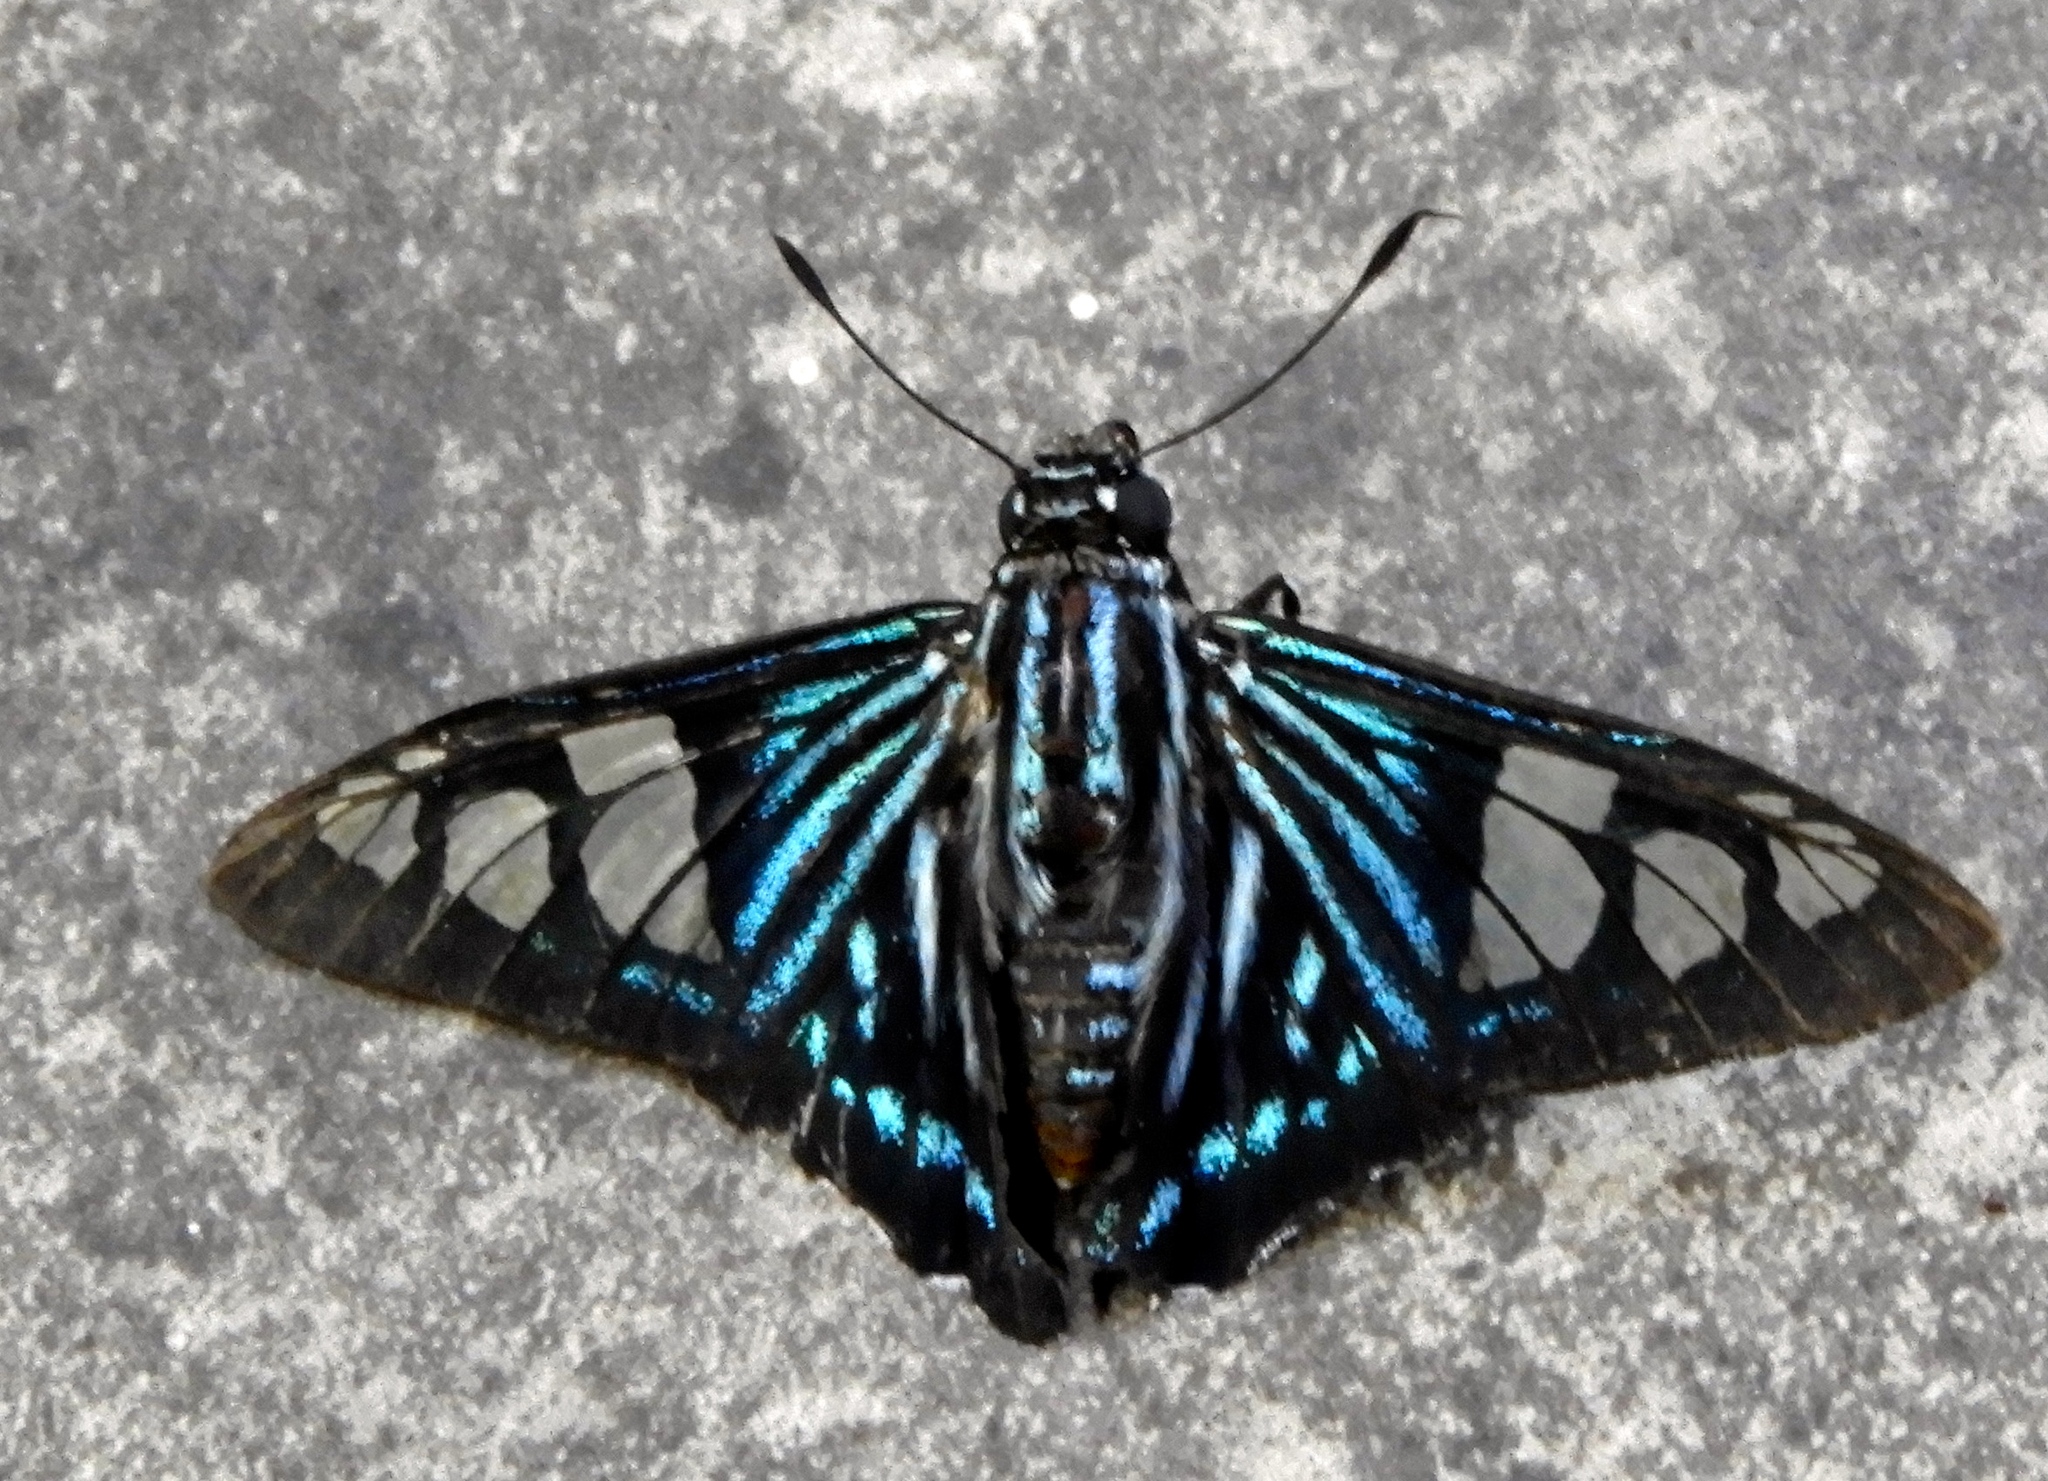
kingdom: Animalia
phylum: Arthropoda
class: Insecta
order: Lepidoptera
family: Hesperiidae
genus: Phocides
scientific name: Phocides pigmalion
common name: Mangrove skipper
